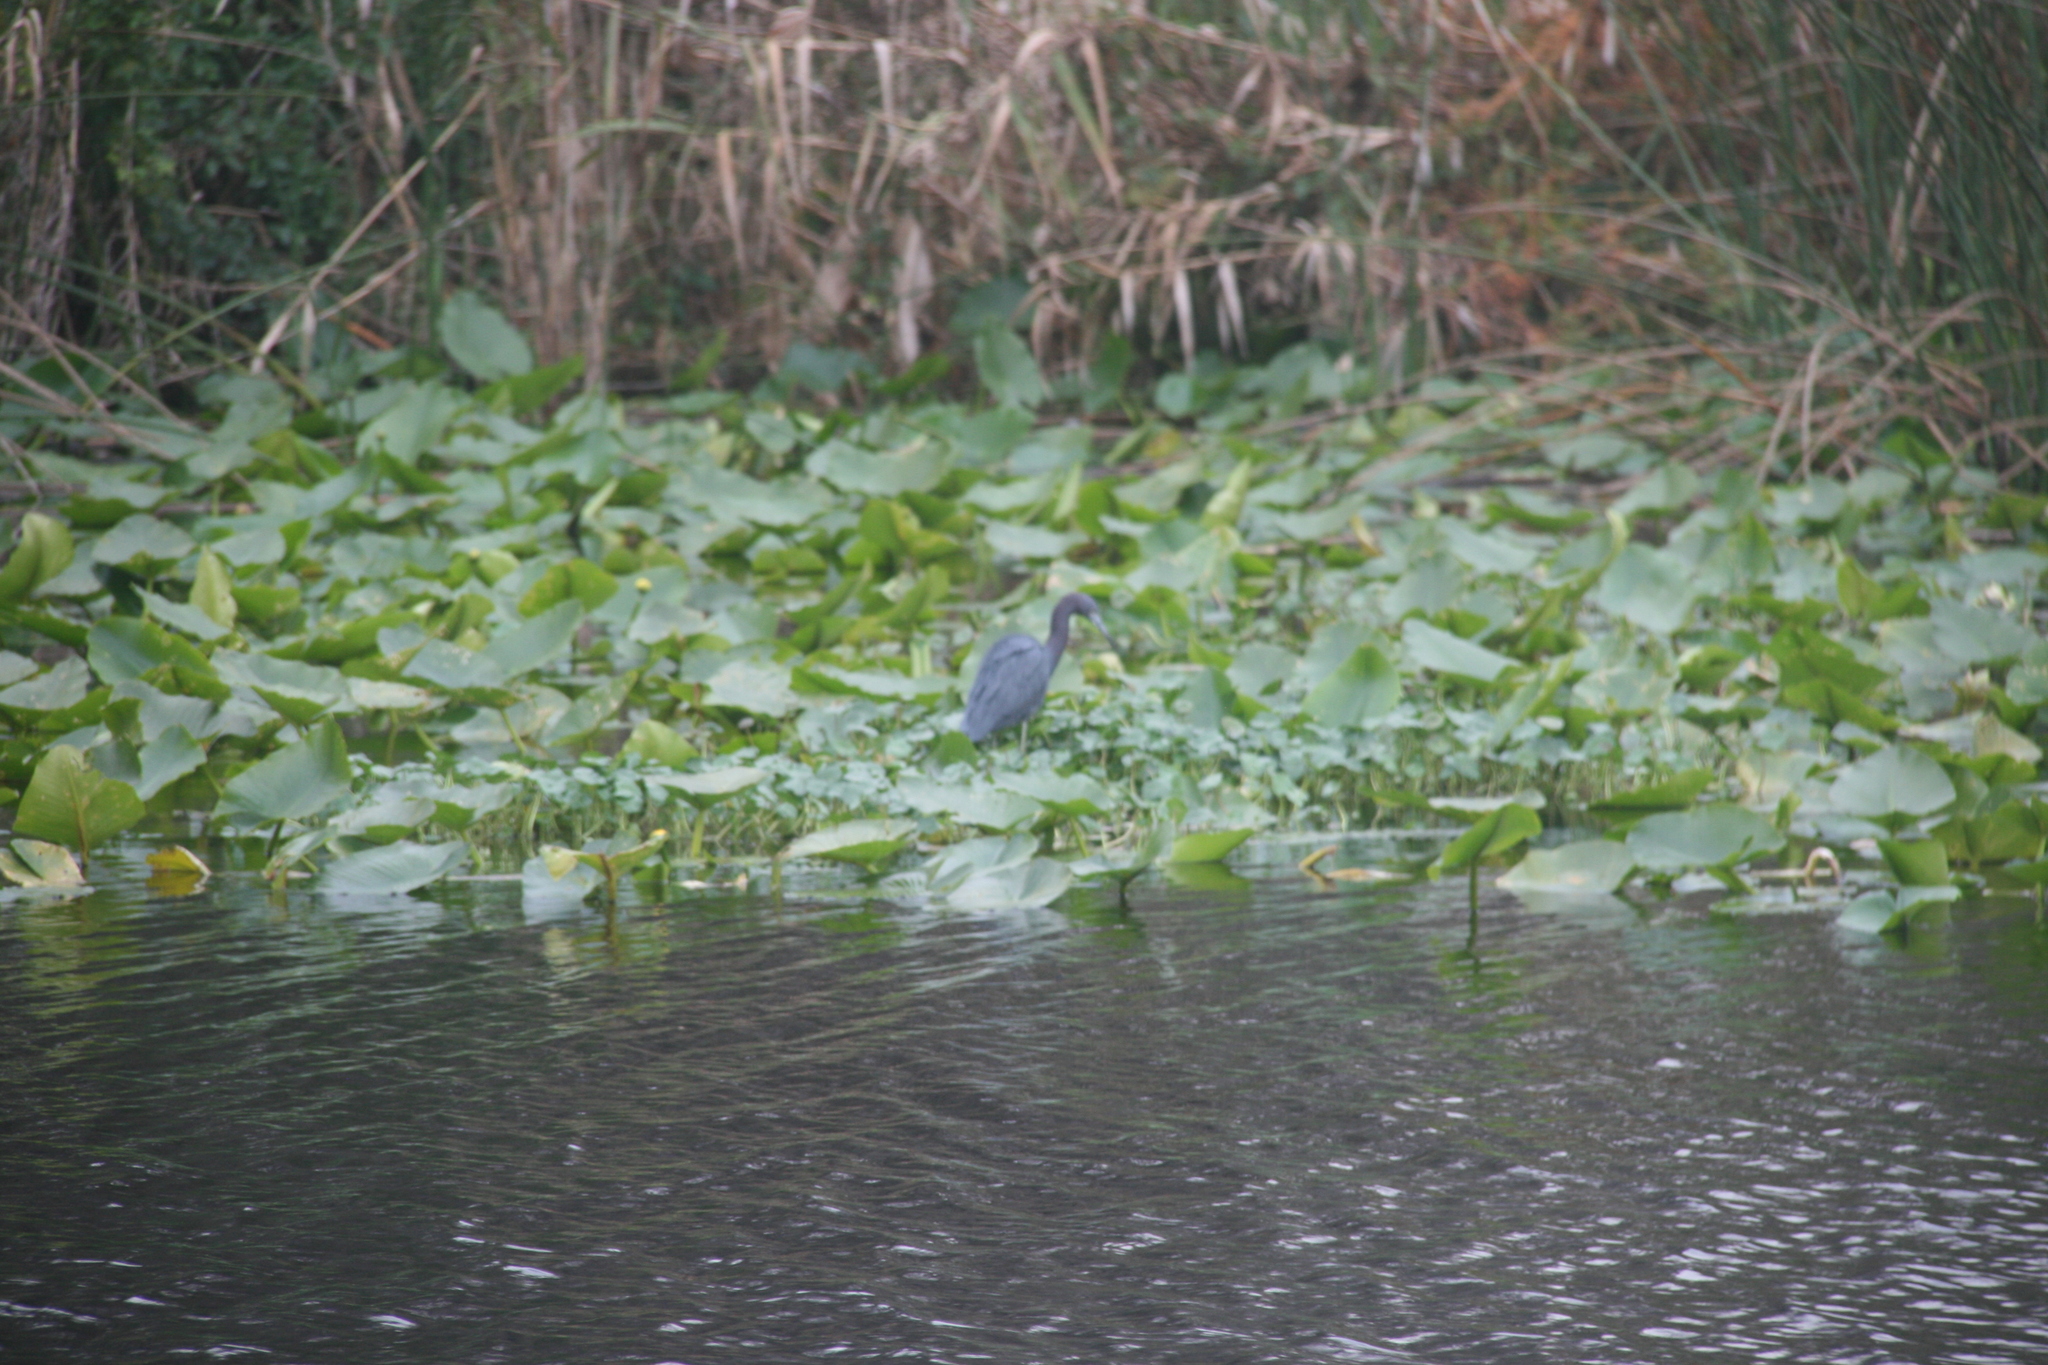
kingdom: Animalia
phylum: Chordata
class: Aves
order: Pelecaniformes
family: Ardeidae
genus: Egretta
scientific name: Egretta caerulea
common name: Little blue heron
